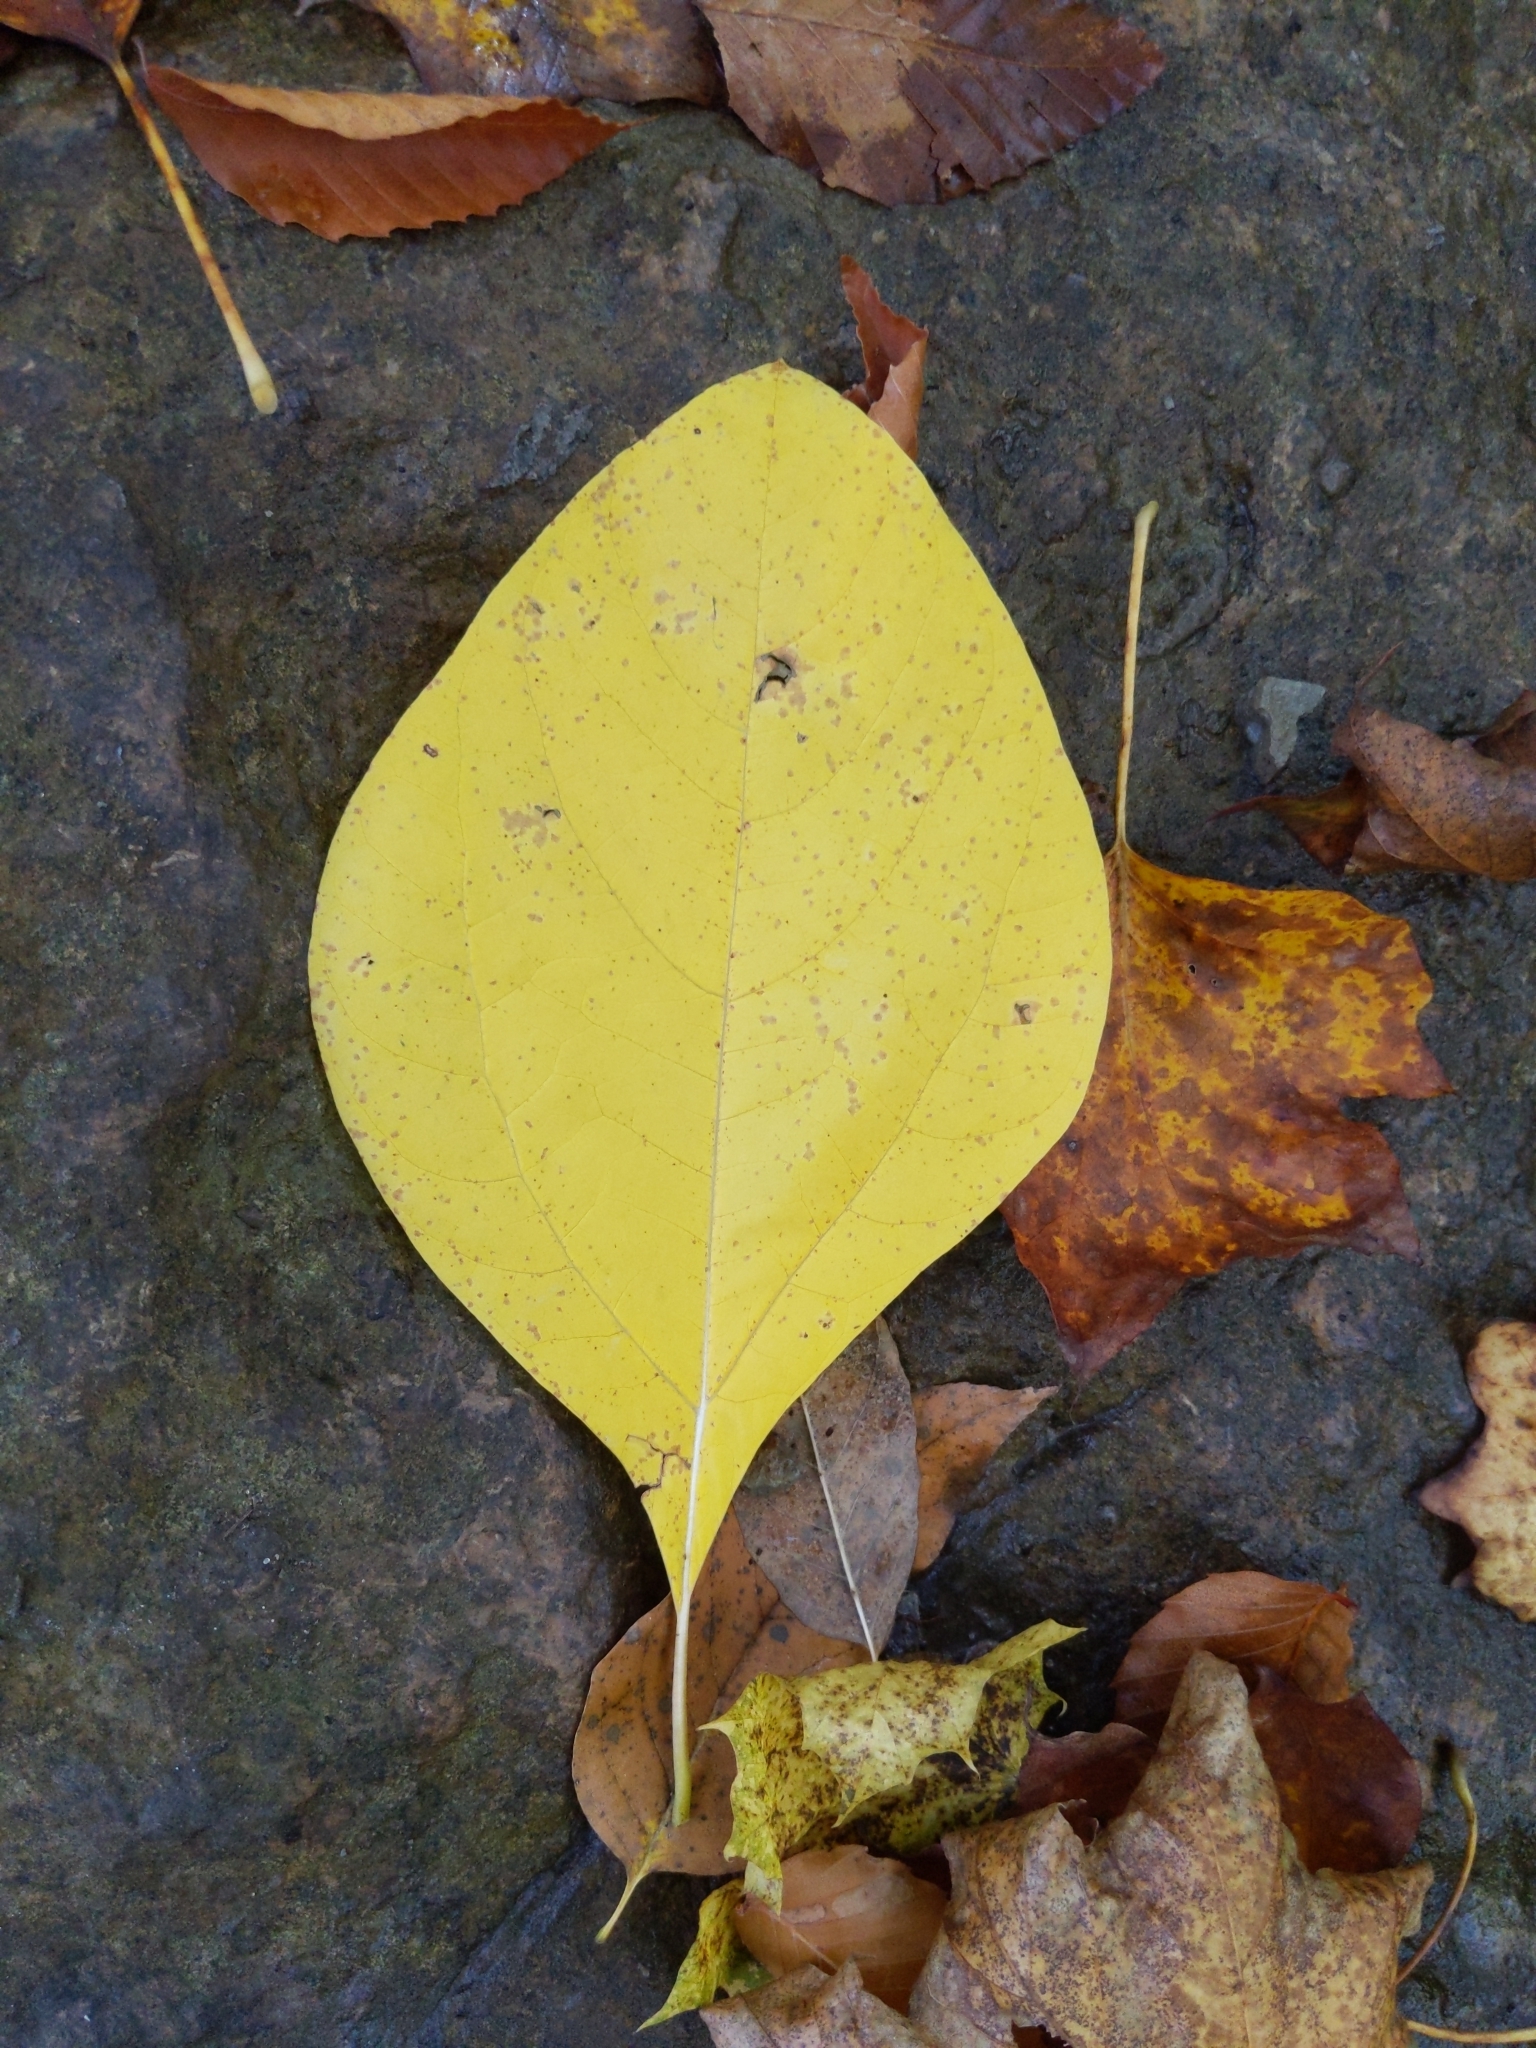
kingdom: Plantae
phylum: Tracheophyta
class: Magnoliopsida
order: Laurales
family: Lauraceae
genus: Sassafras
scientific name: Sassafras albidum
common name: Sassafras
